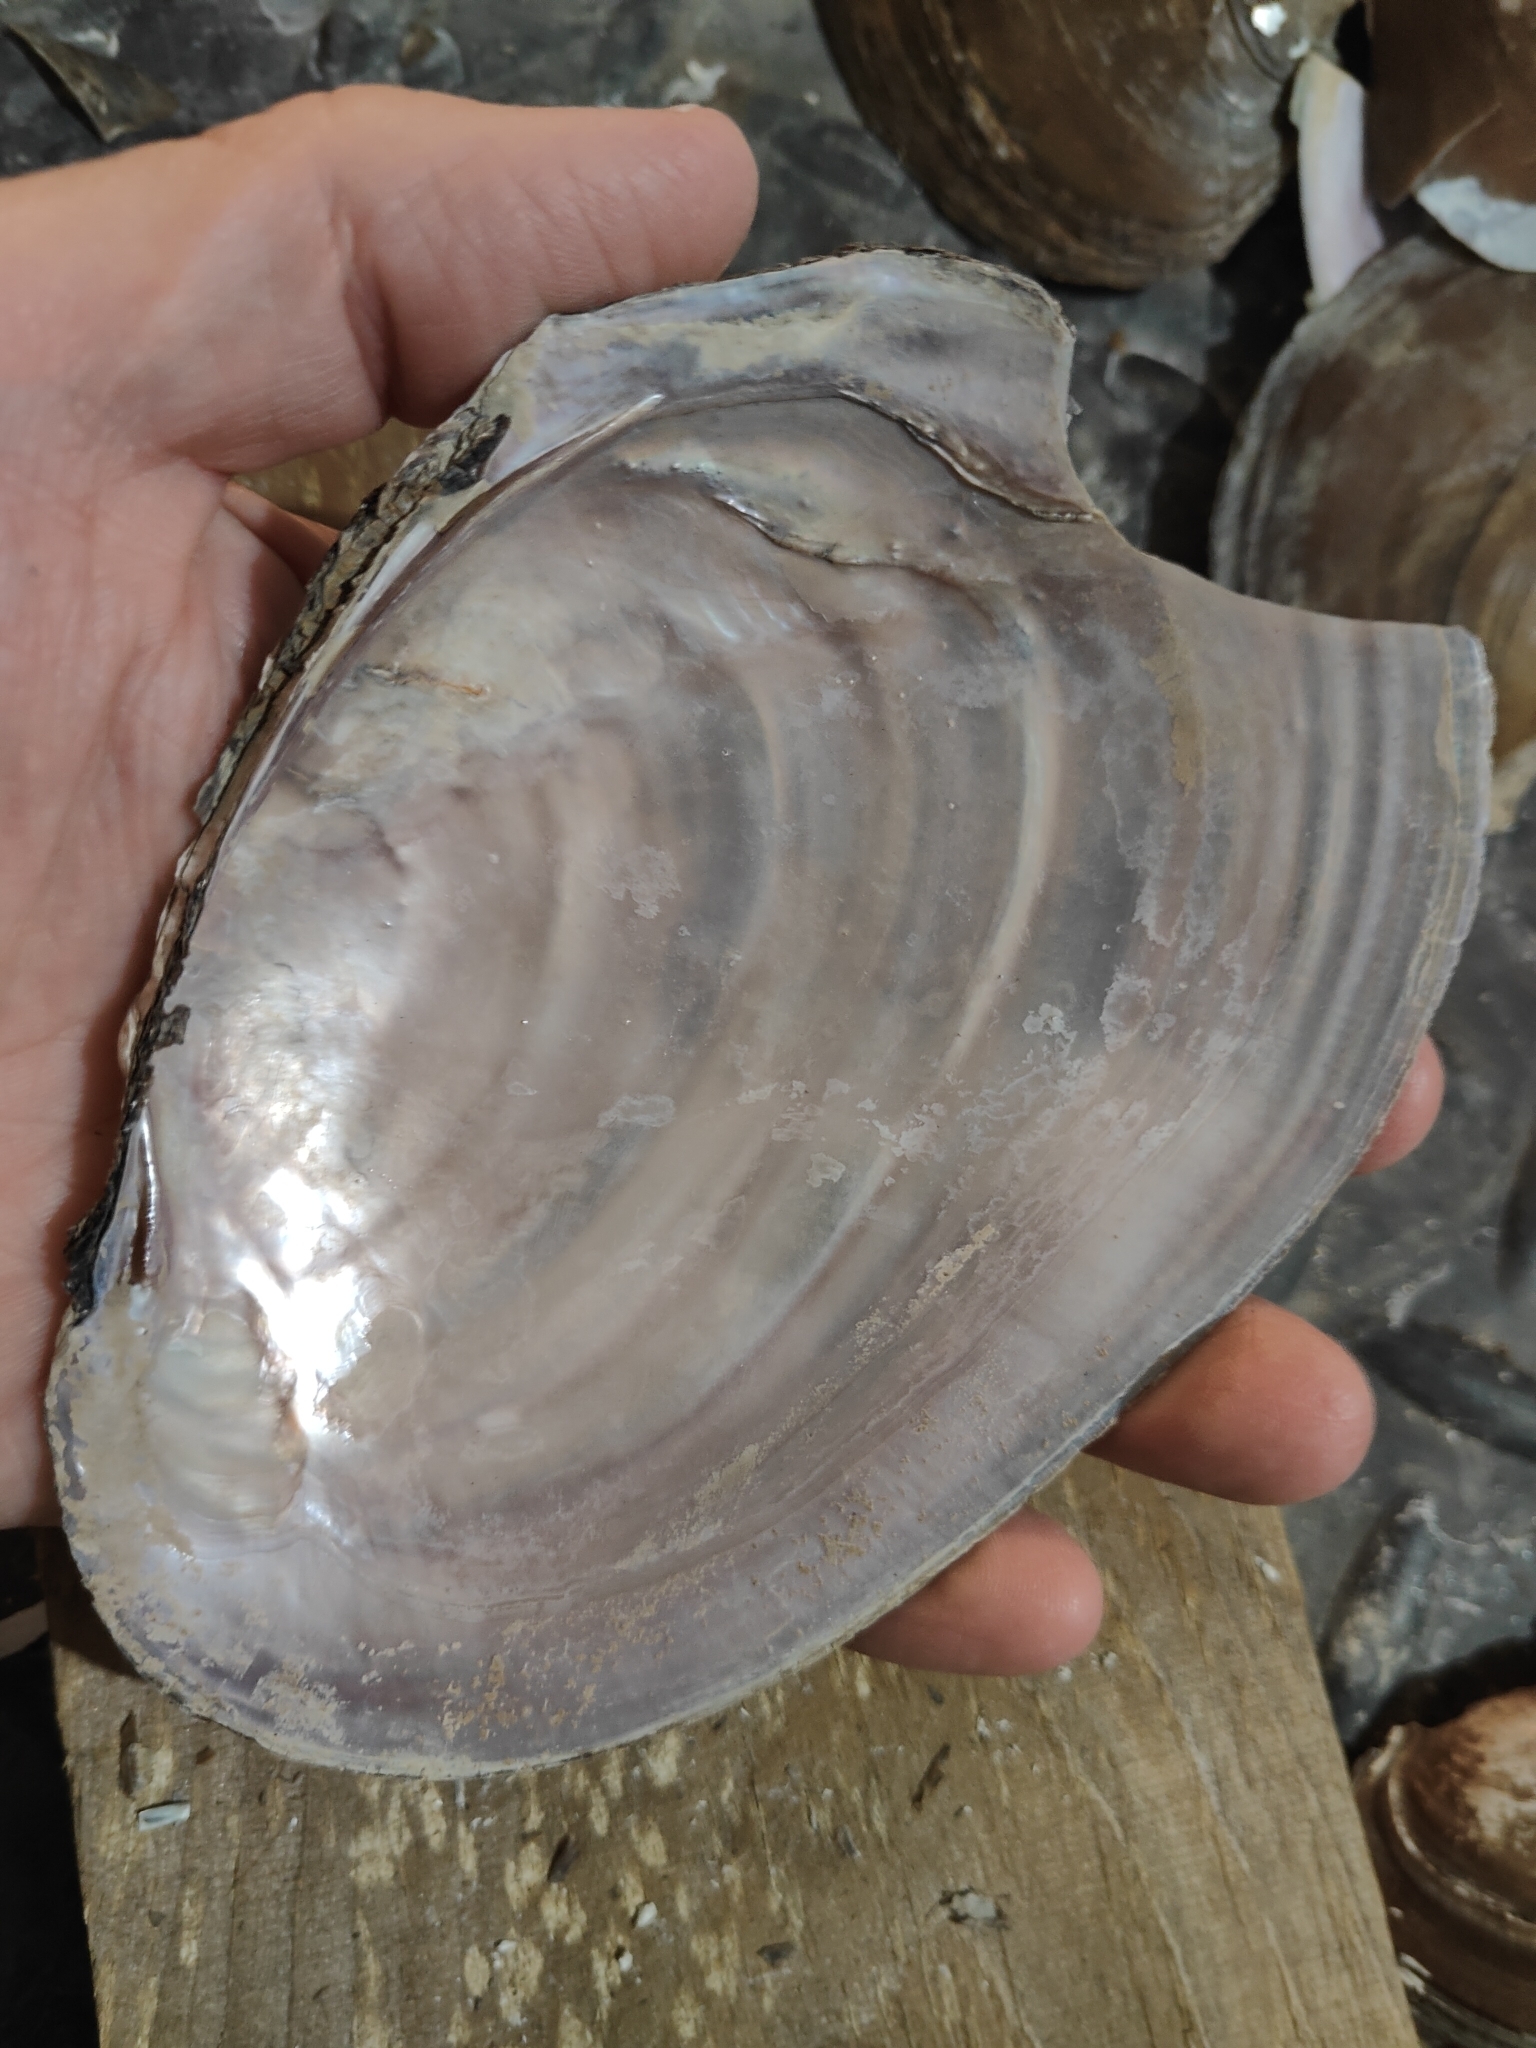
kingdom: Animalia
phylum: Mollusca
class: Bivalvia
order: Unionida
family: Unionidae
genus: Potamilus
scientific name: Potamilus ohiensis
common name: Pink papershell
